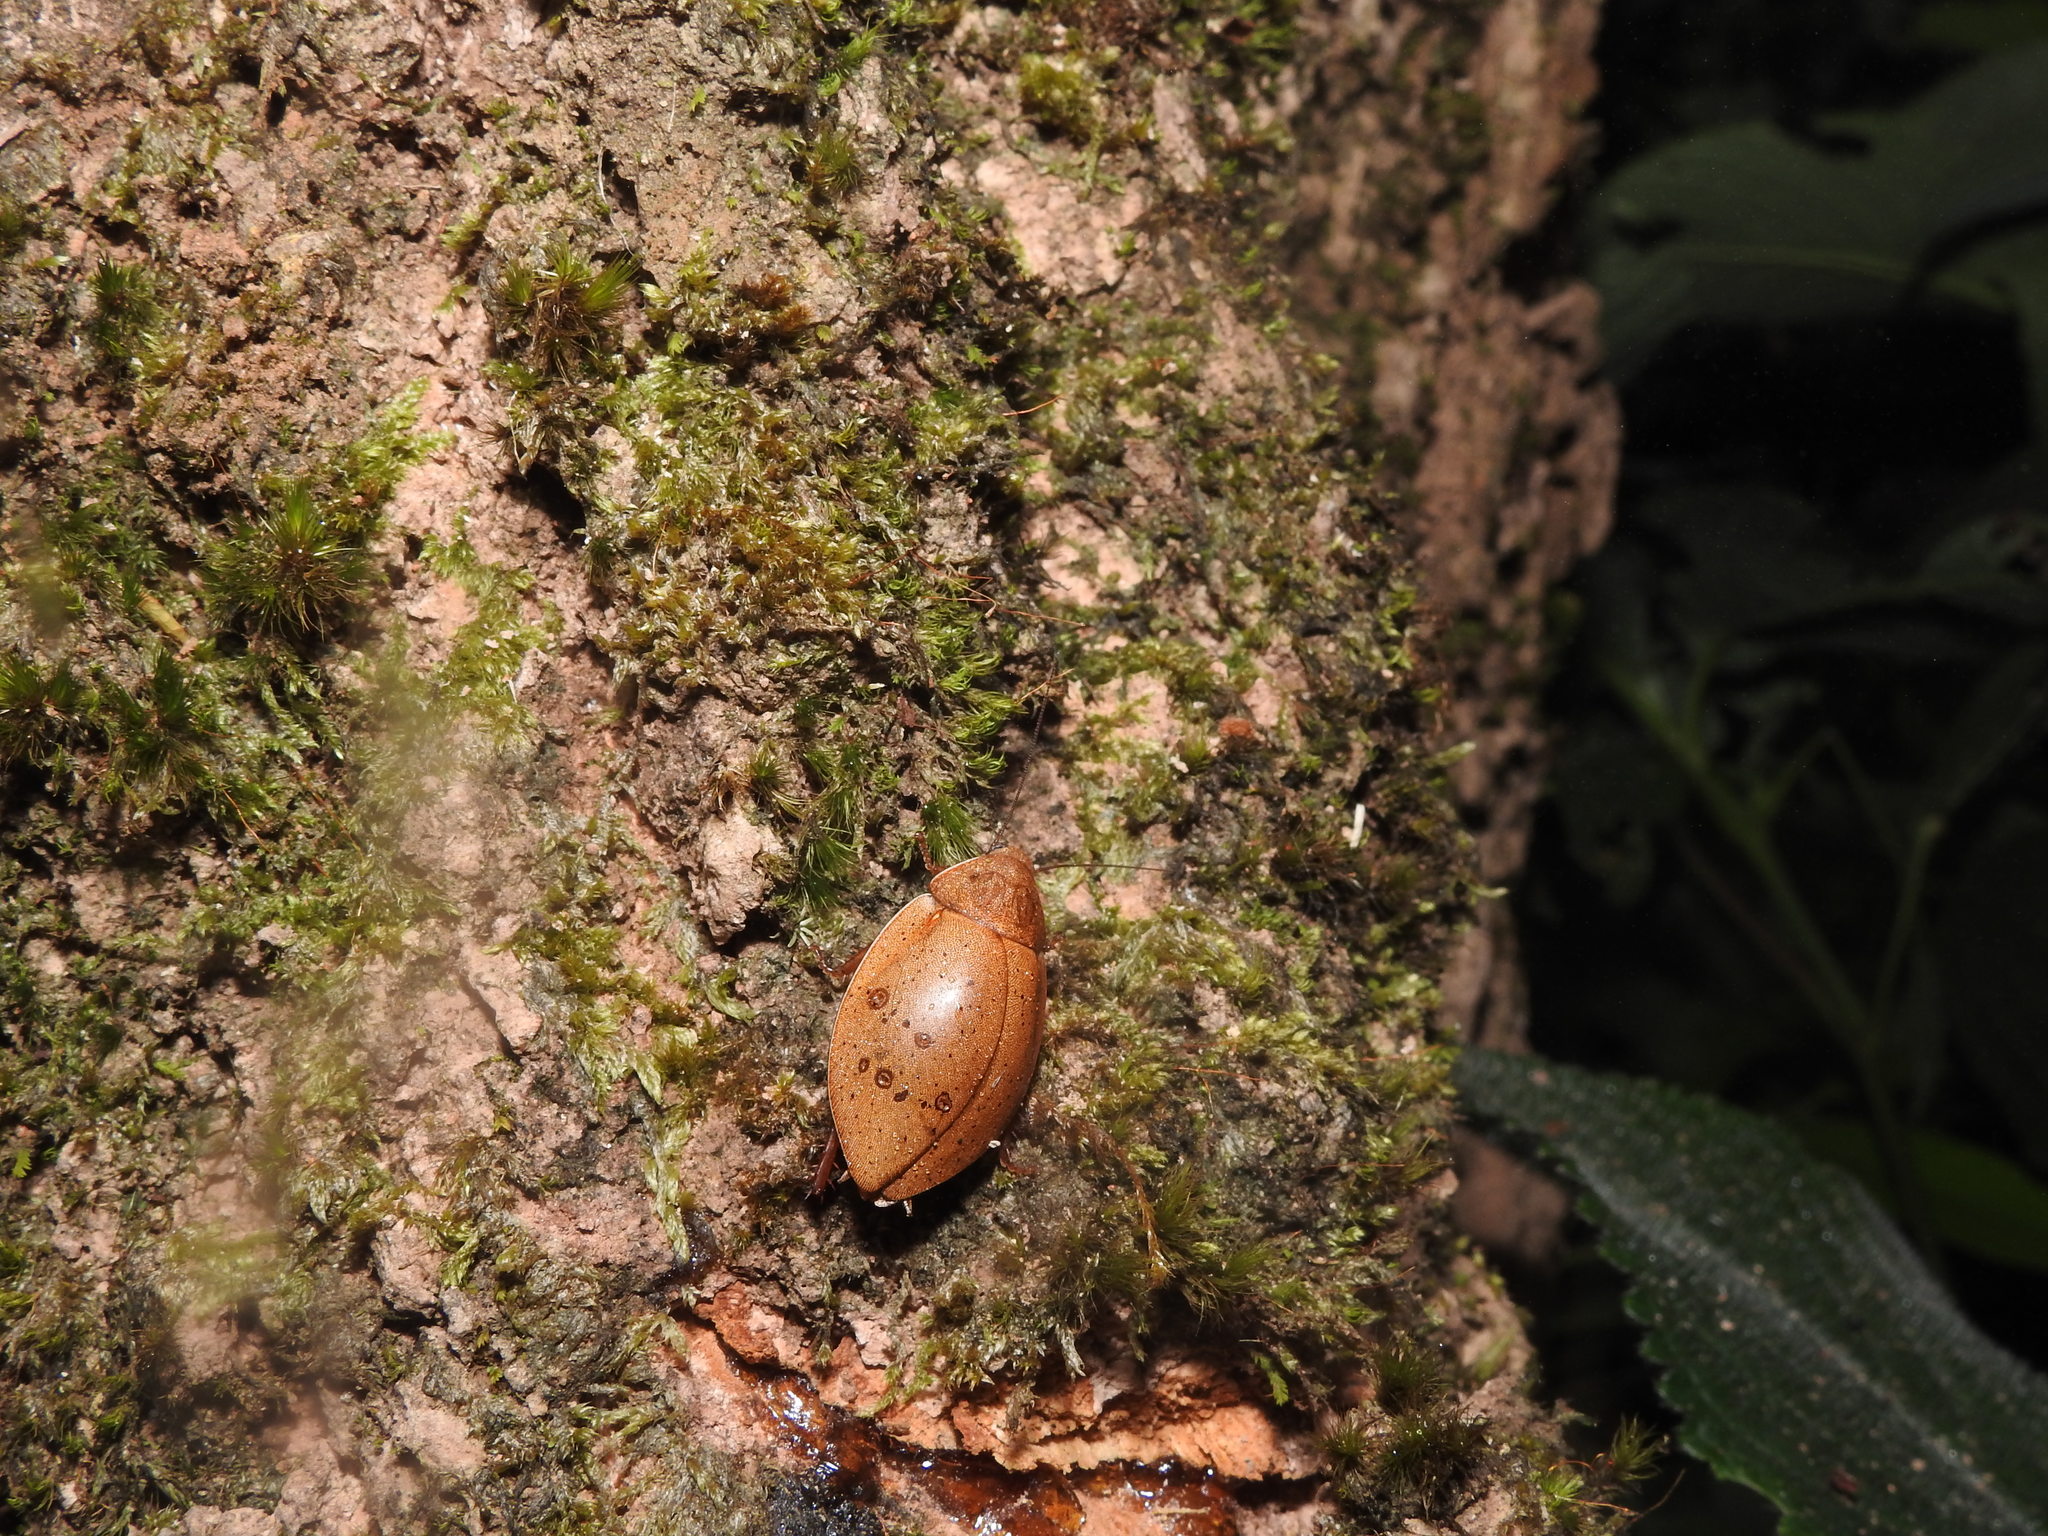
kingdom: Animalia
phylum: Arthropoda
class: Insecta
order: Blattodea
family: Blaberidae
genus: Thorax
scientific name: Thorax porcellana
